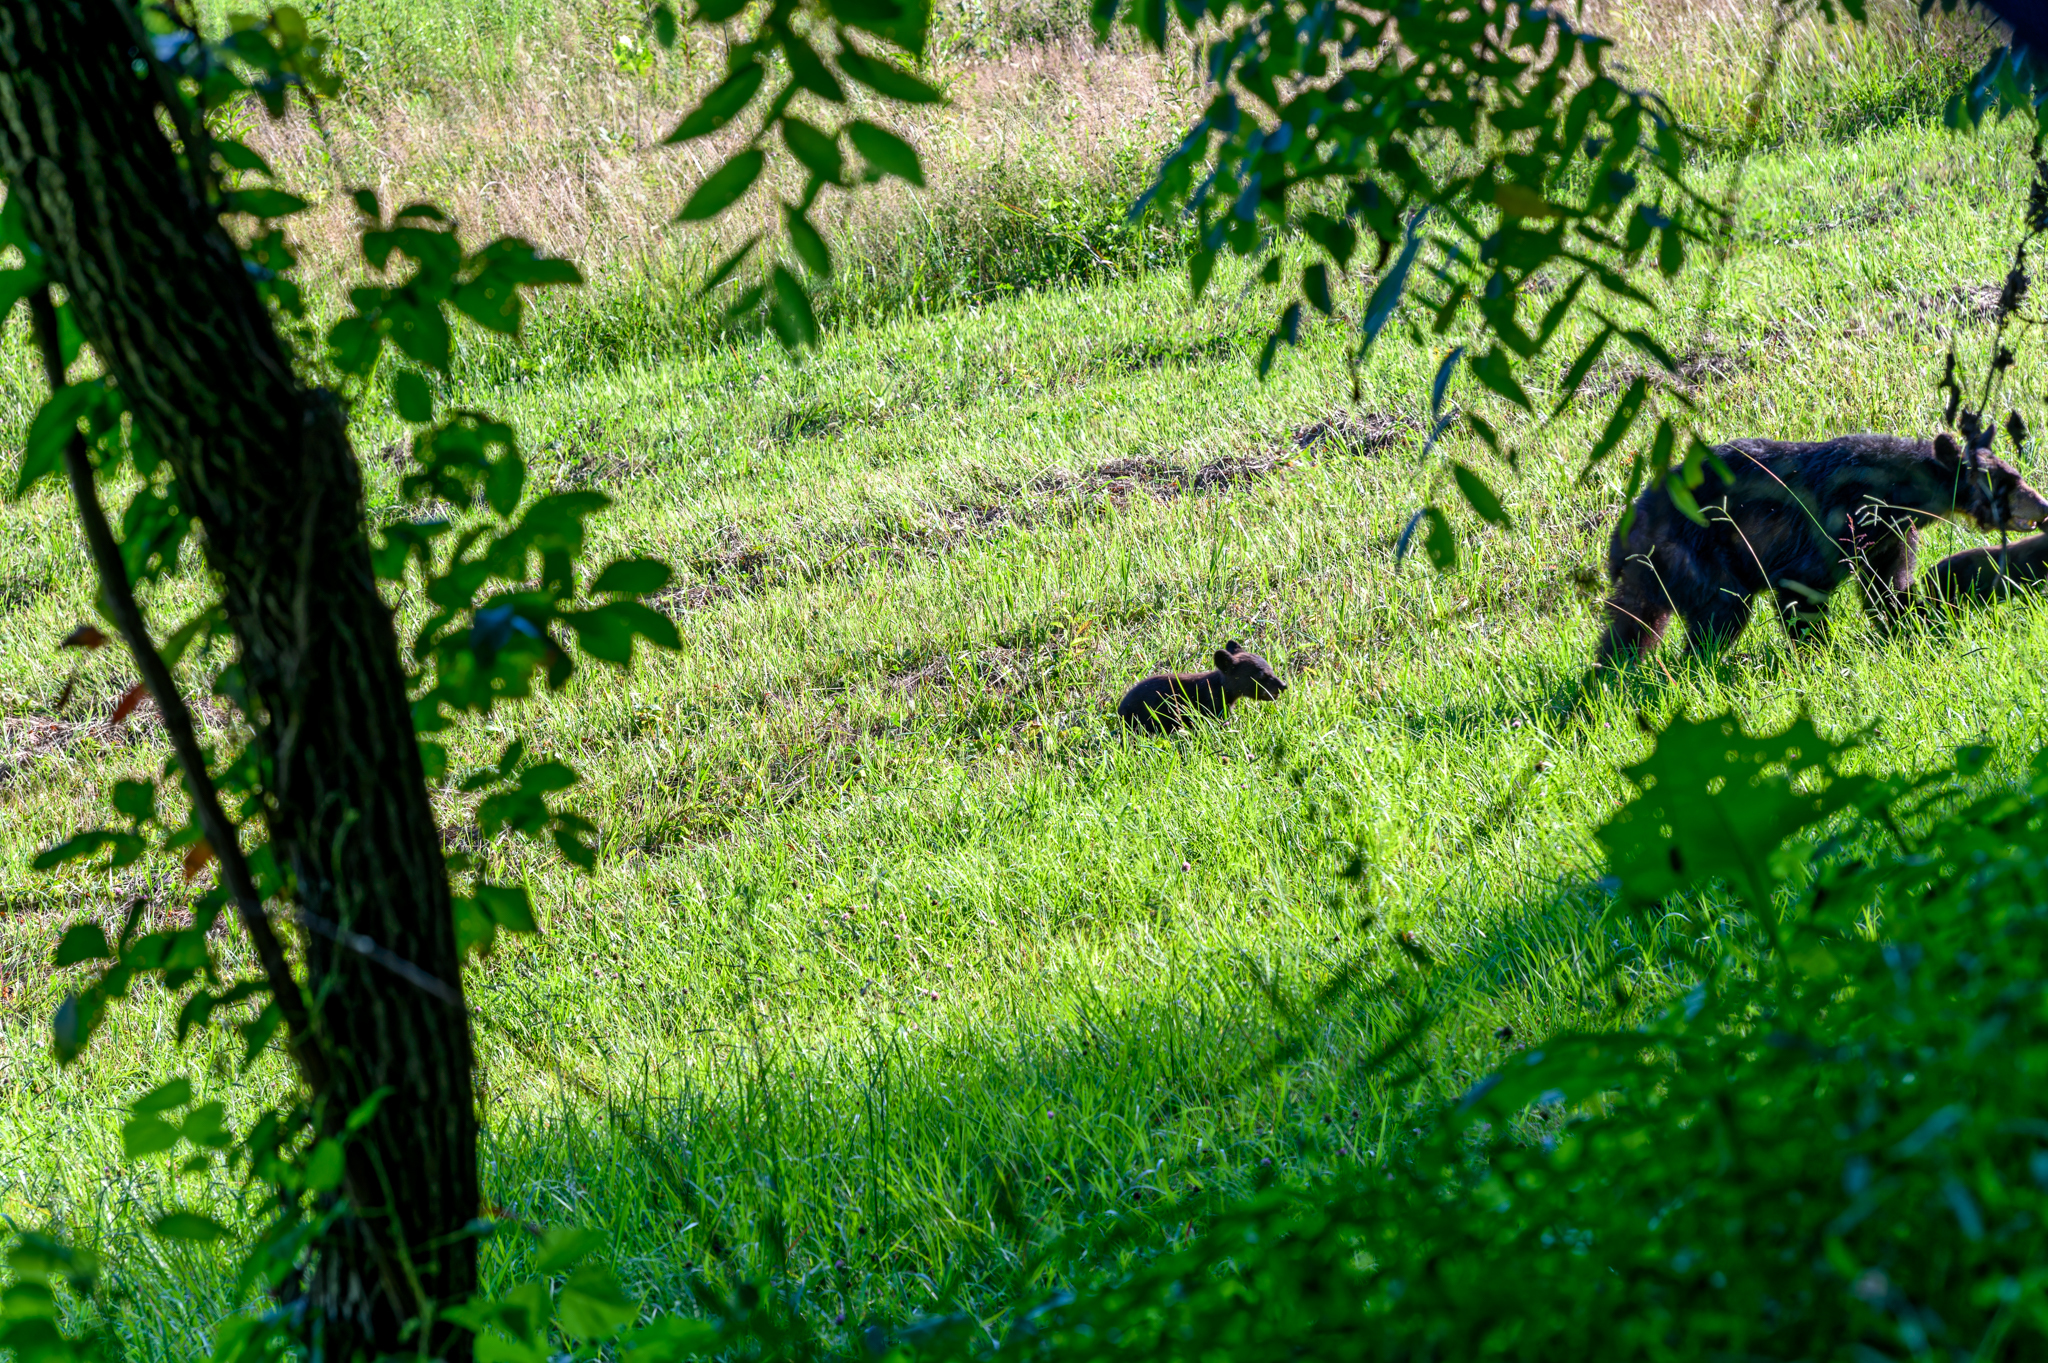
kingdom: Animalia
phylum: Chordata
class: Mammalia
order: Carnivora
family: Ursidae
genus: Ursus
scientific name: Ursus americanus
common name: American black bear
